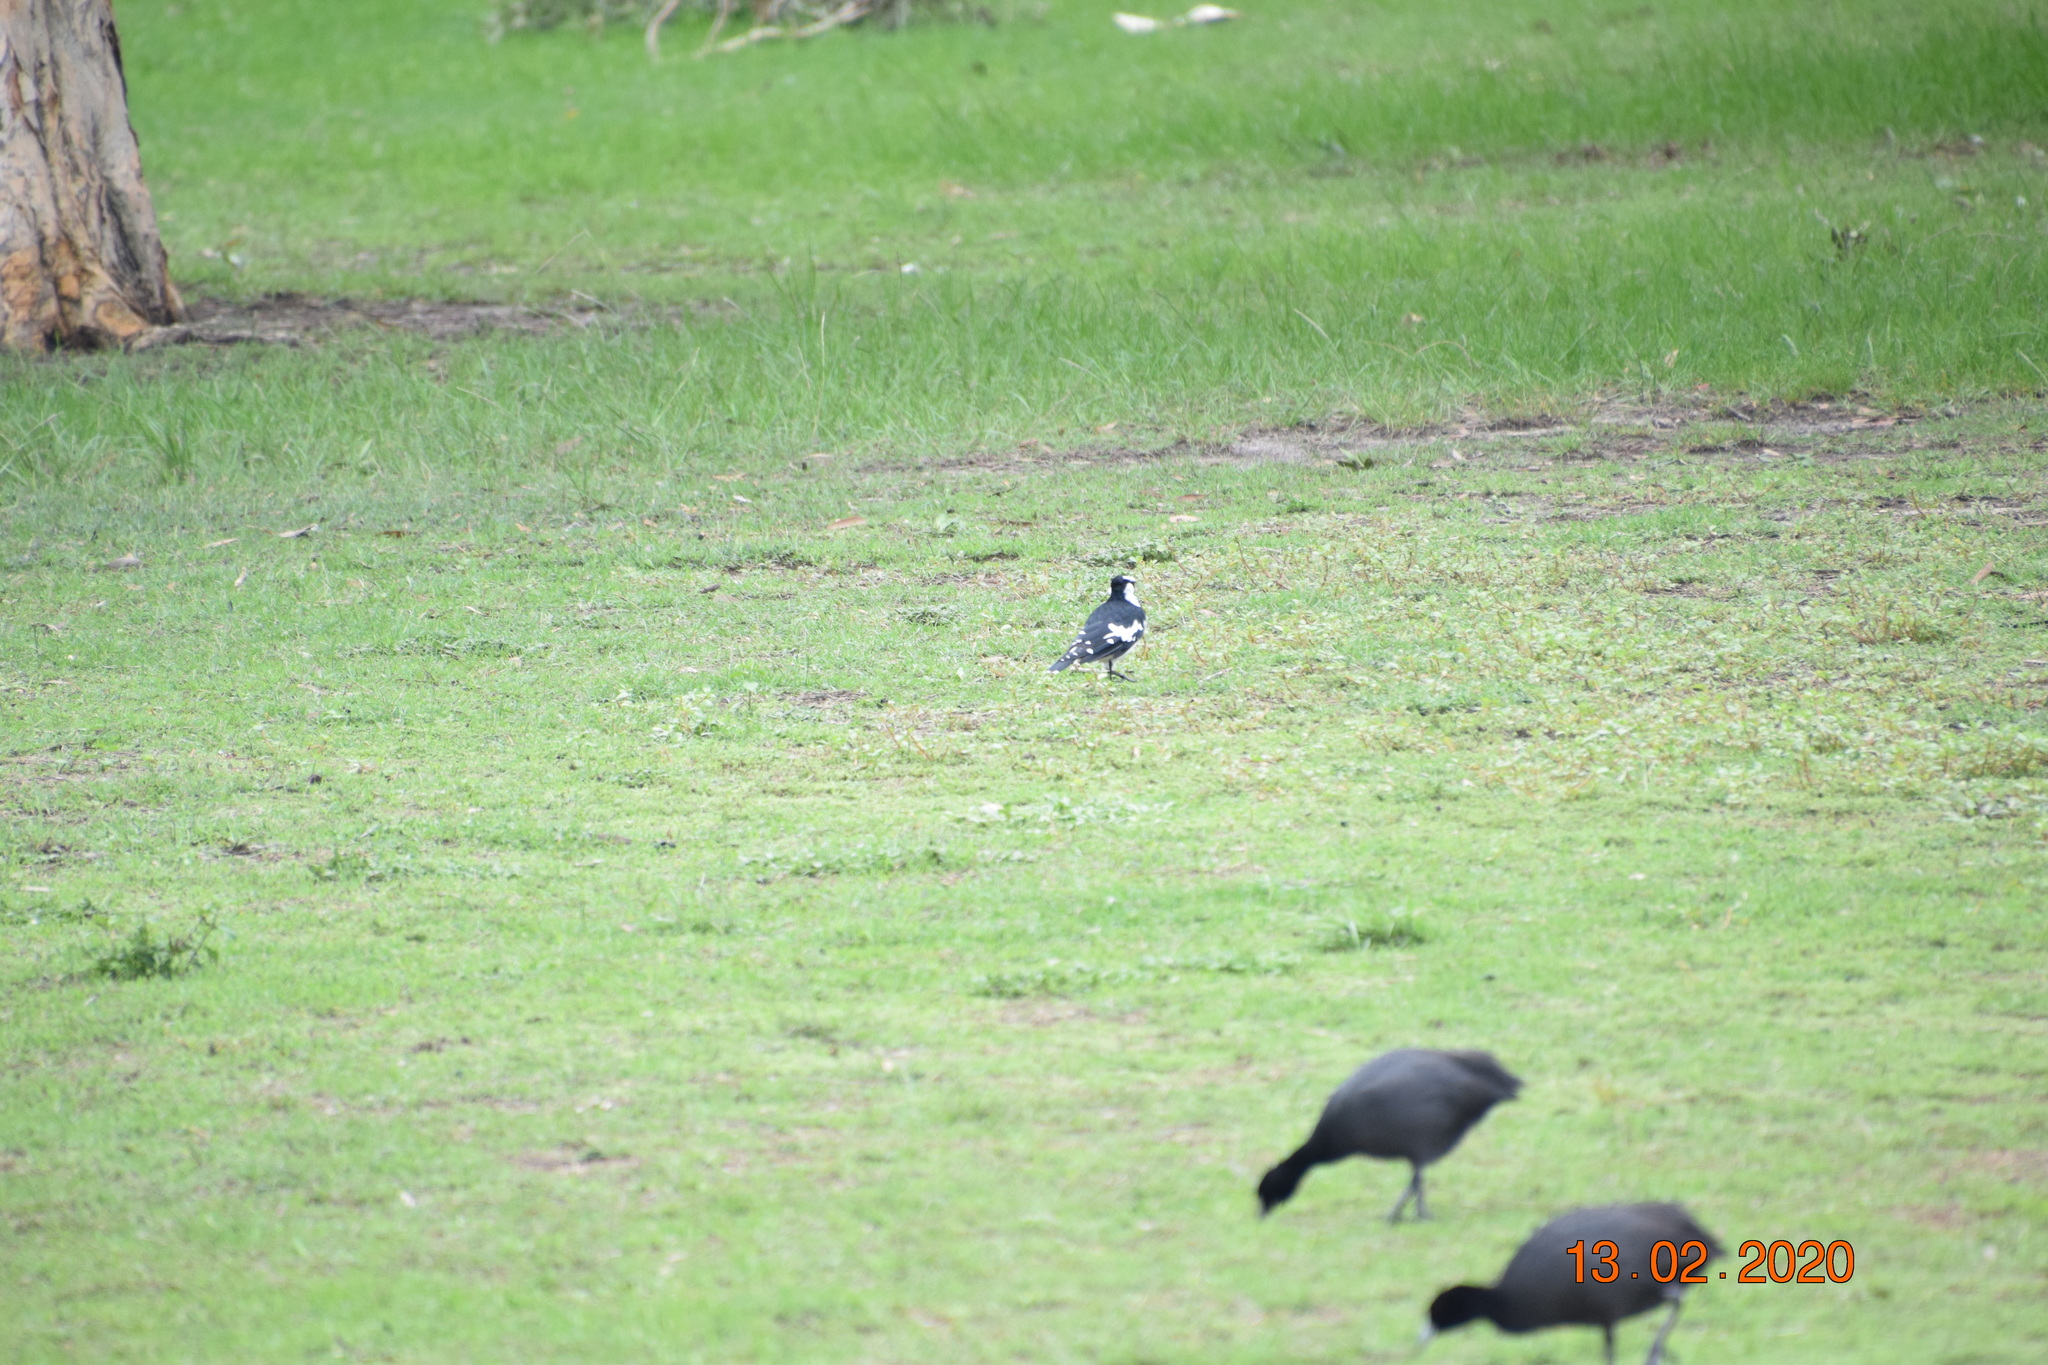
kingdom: Animalia
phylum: Chordata
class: Aves
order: Passeriformes
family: Monarchidae
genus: Grallina
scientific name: Grallina cyanoleuca
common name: Magpie-lark
